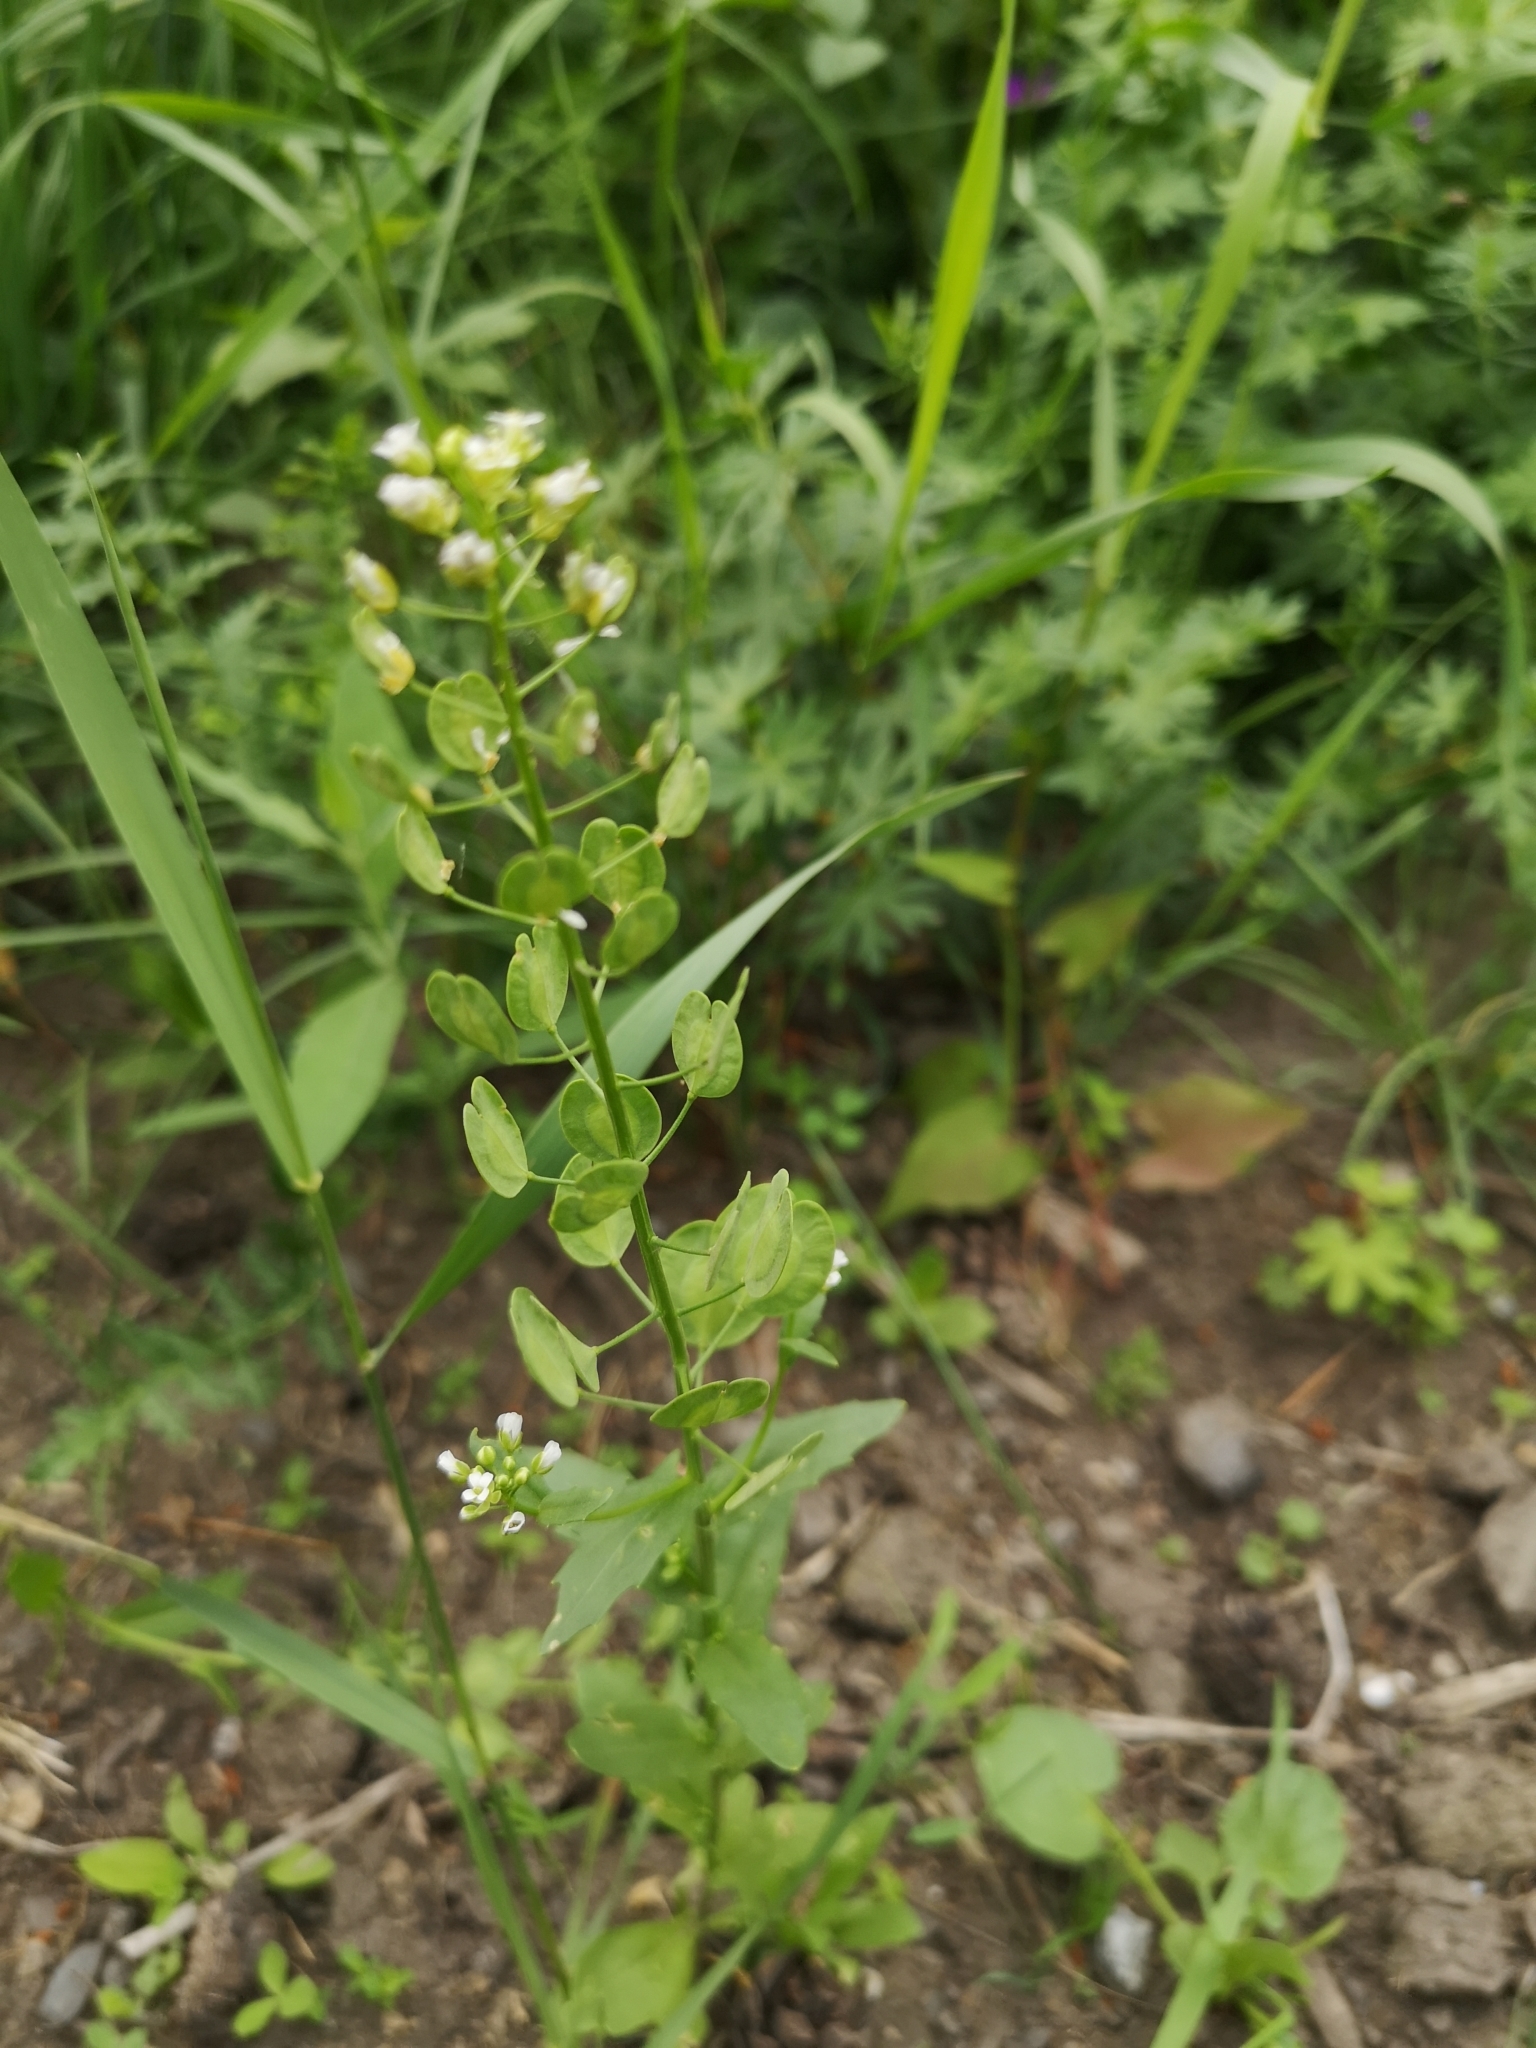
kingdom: Plantae
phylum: Tracheophyta
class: Magnoliopsida
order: Brassicales
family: Brassicaceae
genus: Thlaspi
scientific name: Thlaspi arvense
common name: Field pennycress
